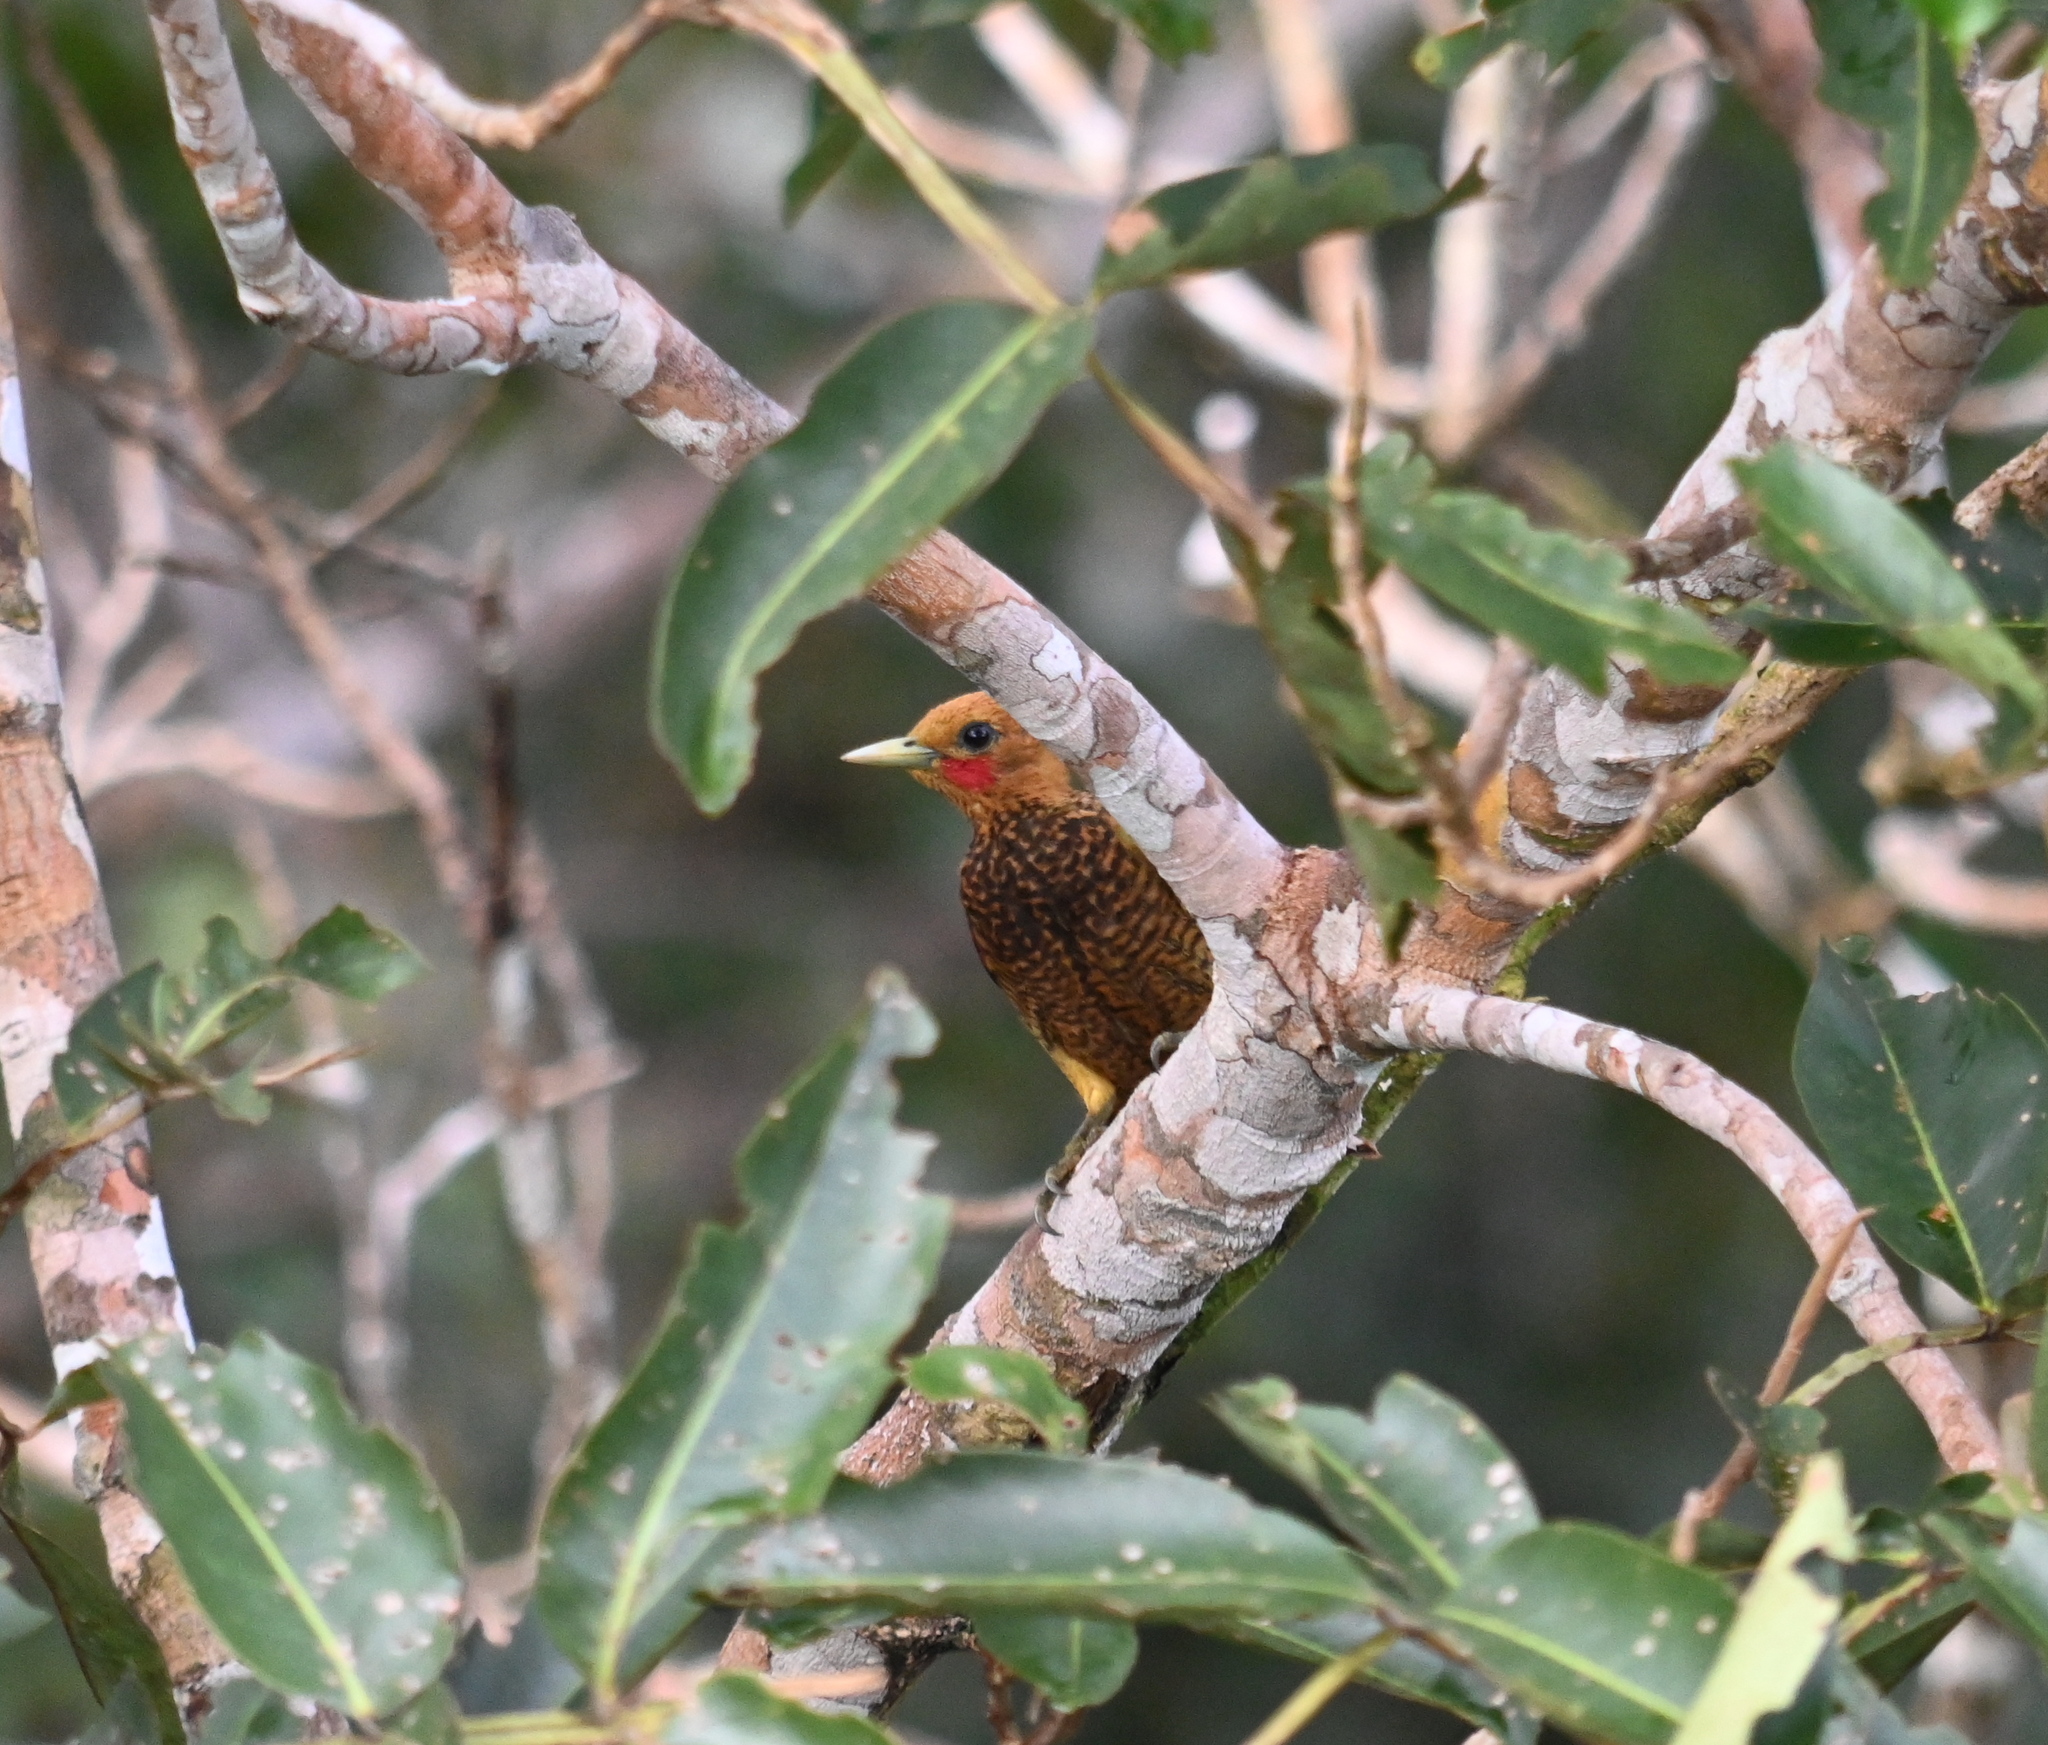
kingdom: Animalia
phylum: Chordata
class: Aves
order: Piciformes
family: Picidae
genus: Celeus
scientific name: Celeus undatus
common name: Waved woodpecker
